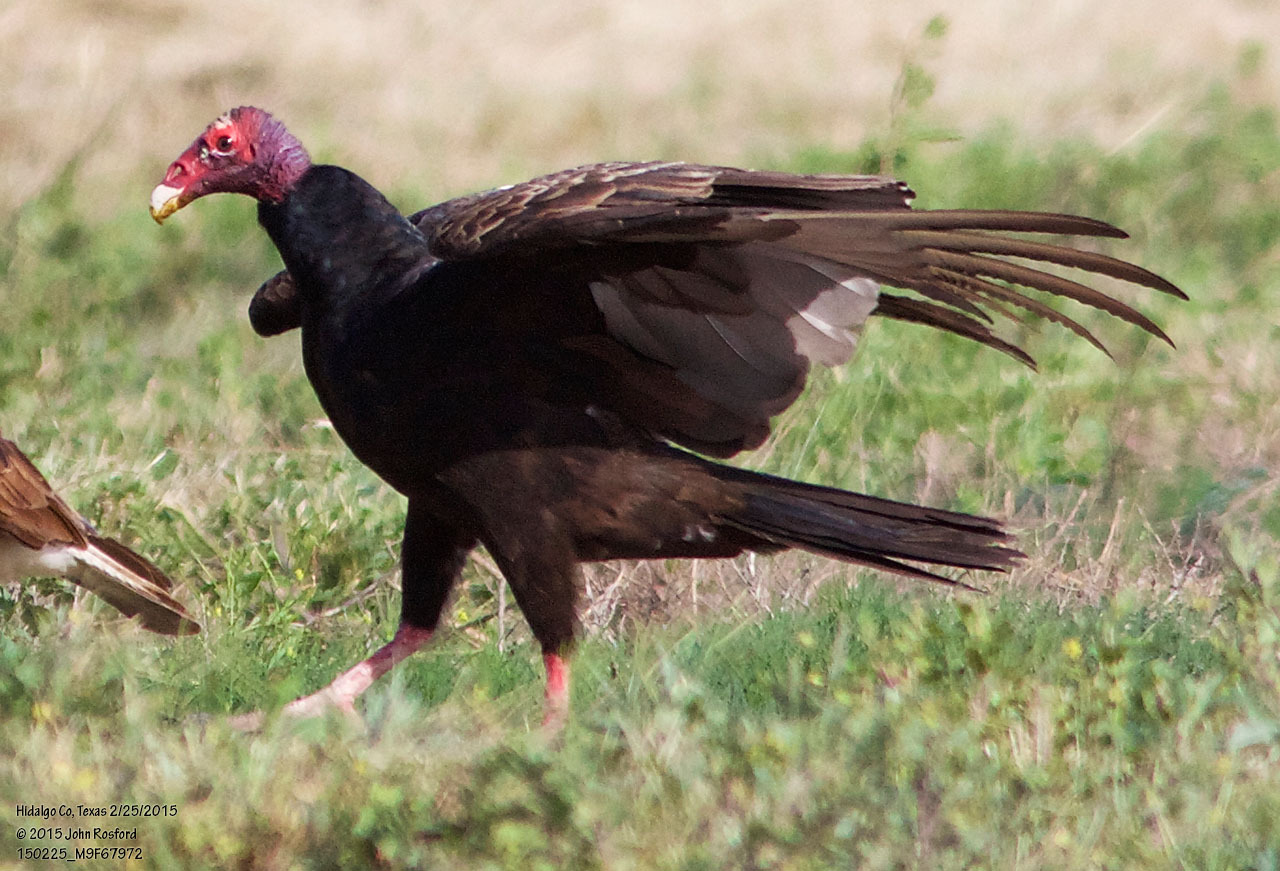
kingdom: Animalia
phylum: Chordata
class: Aves
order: Accipitriformes
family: Cathartidae
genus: Cathartes
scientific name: Cathartes aura
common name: Turkey vulture
